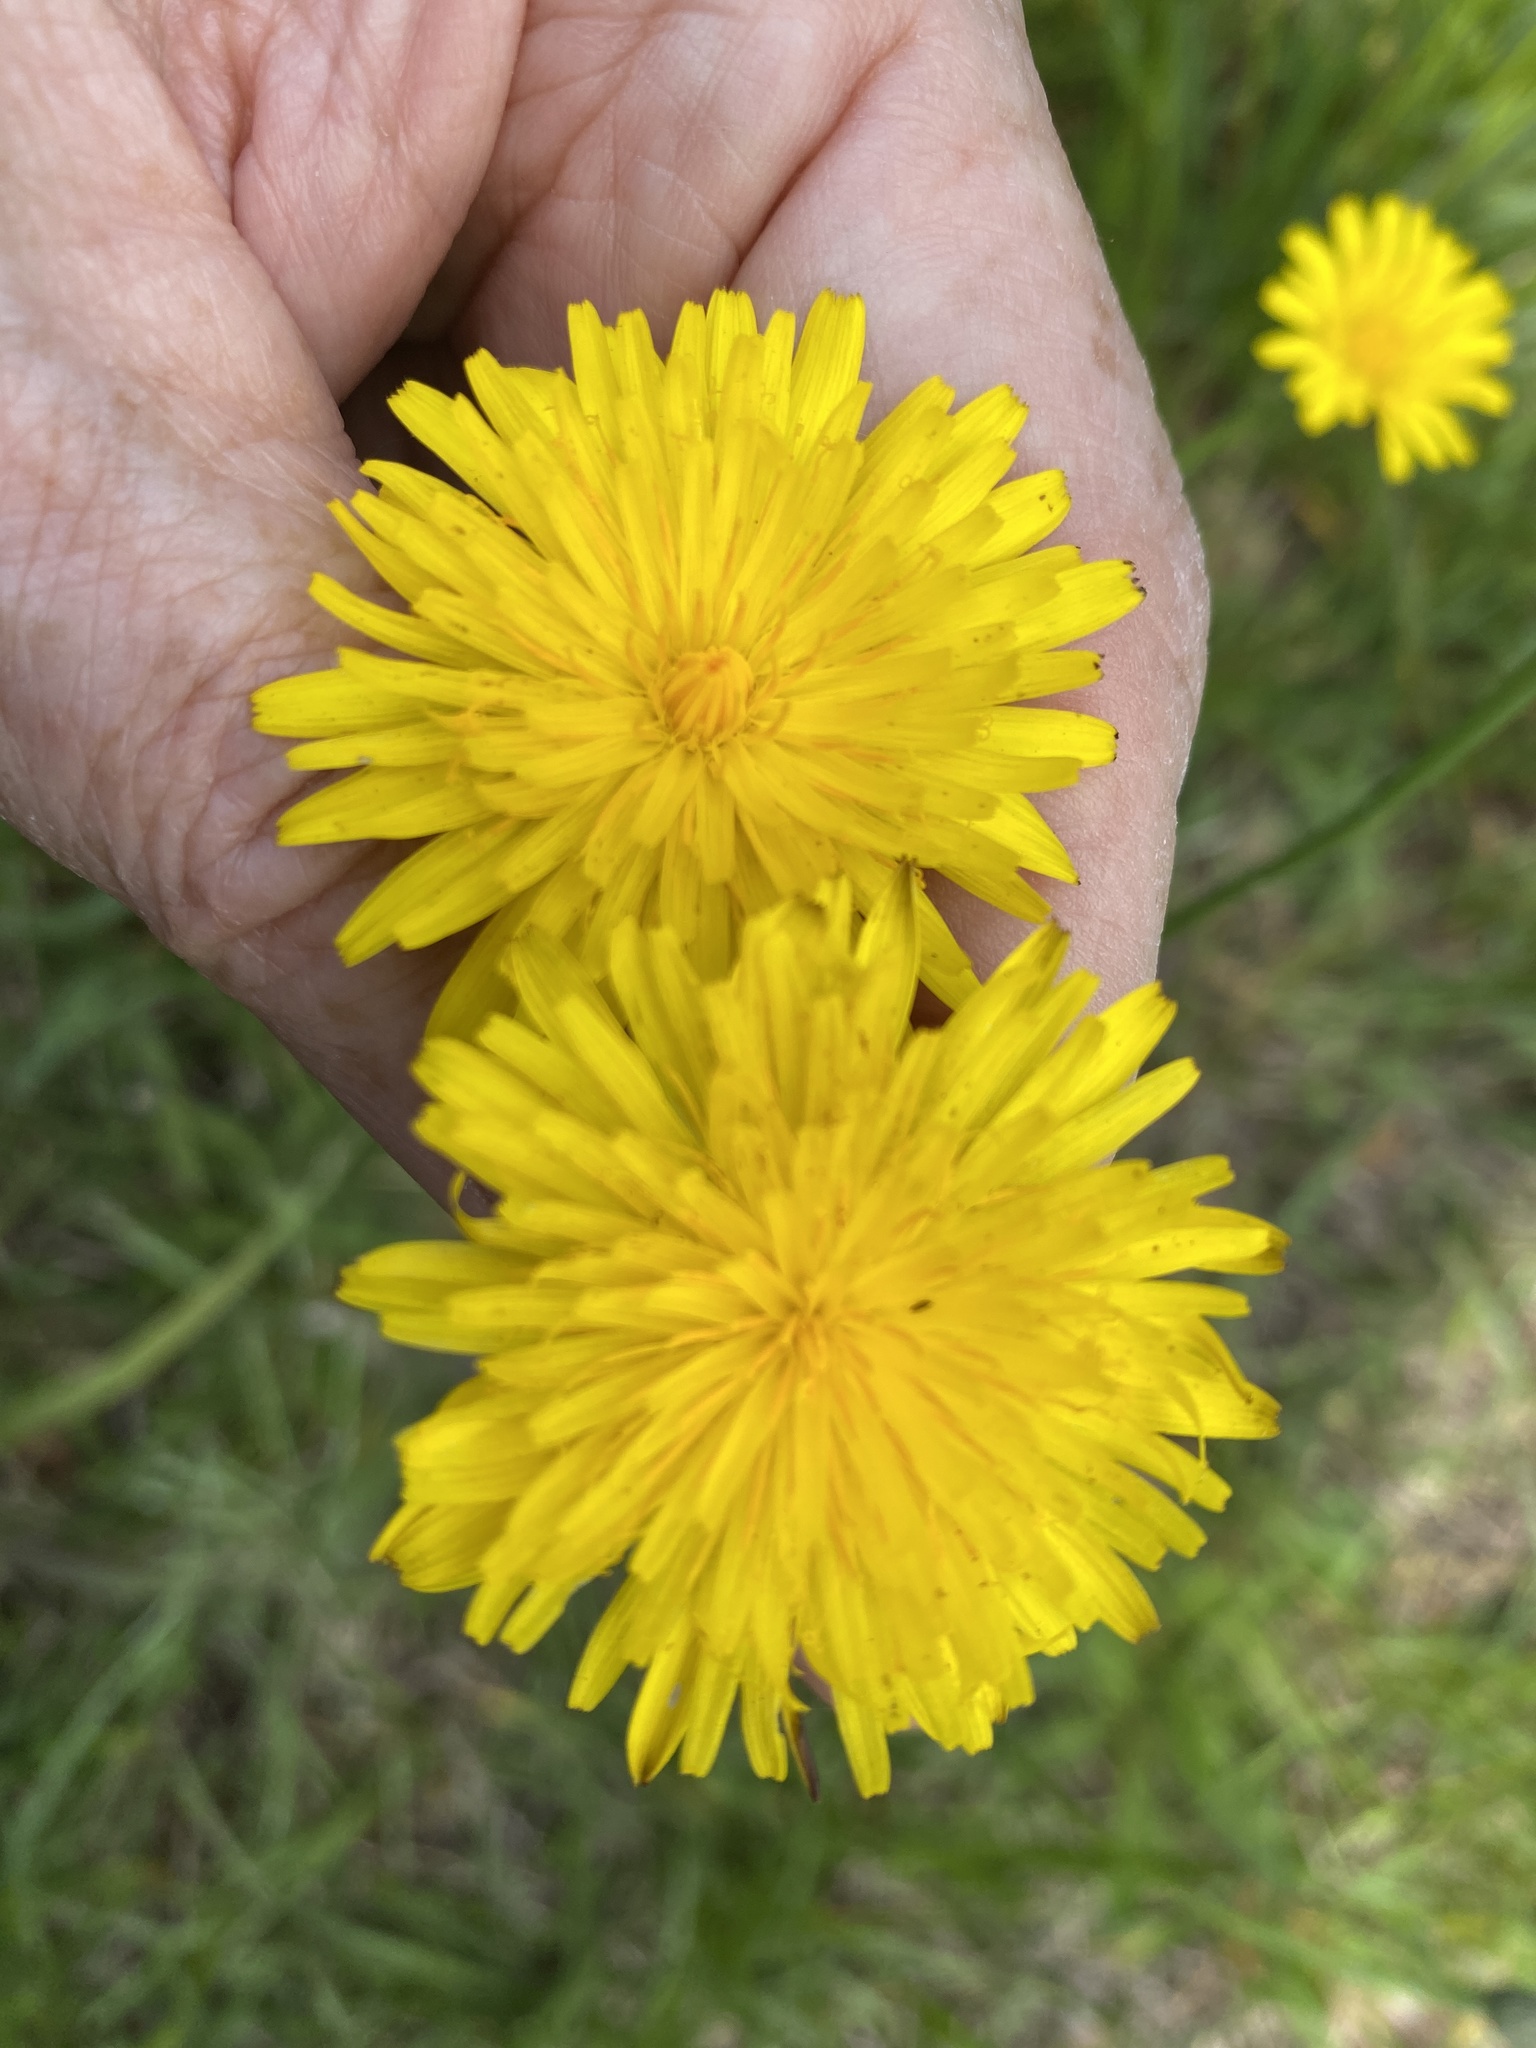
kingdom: Plantae
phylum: Tracheophyta
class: Magnoliopsida
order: Asterales
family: Asteraceae
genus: Hypochaeris
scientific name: Hypochaeris radicata
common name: Flatweed
